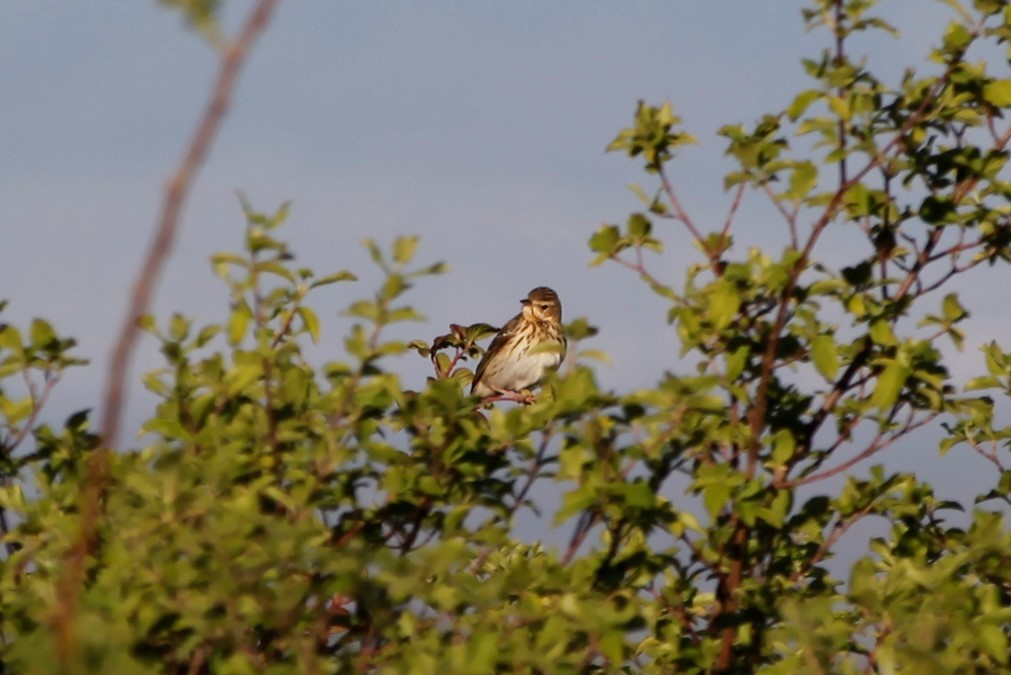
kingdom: Animalia
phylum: Chordata
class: Aves
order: Passeriformes
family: Motacillidae
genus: Anthus
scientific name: Anthus trivialis
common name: Tree pipit
